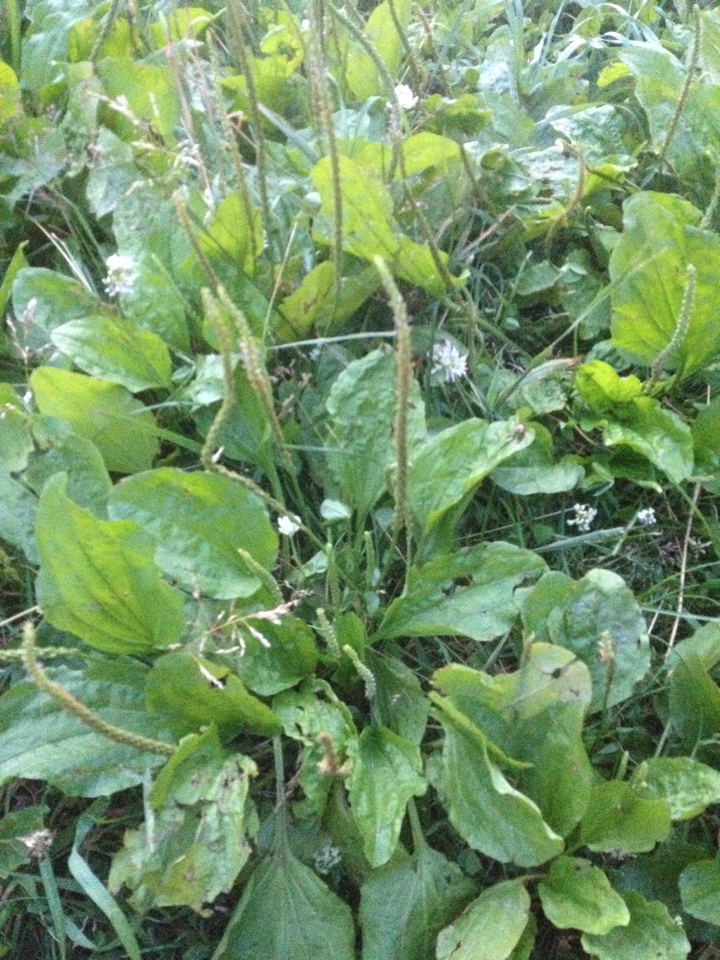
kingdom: Plantae
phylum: Tracheophyta
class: Magnoliopsida
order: Lamiales
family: Plantaginaceae
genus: Plantago
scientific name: Plantago major
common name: Common plantain
